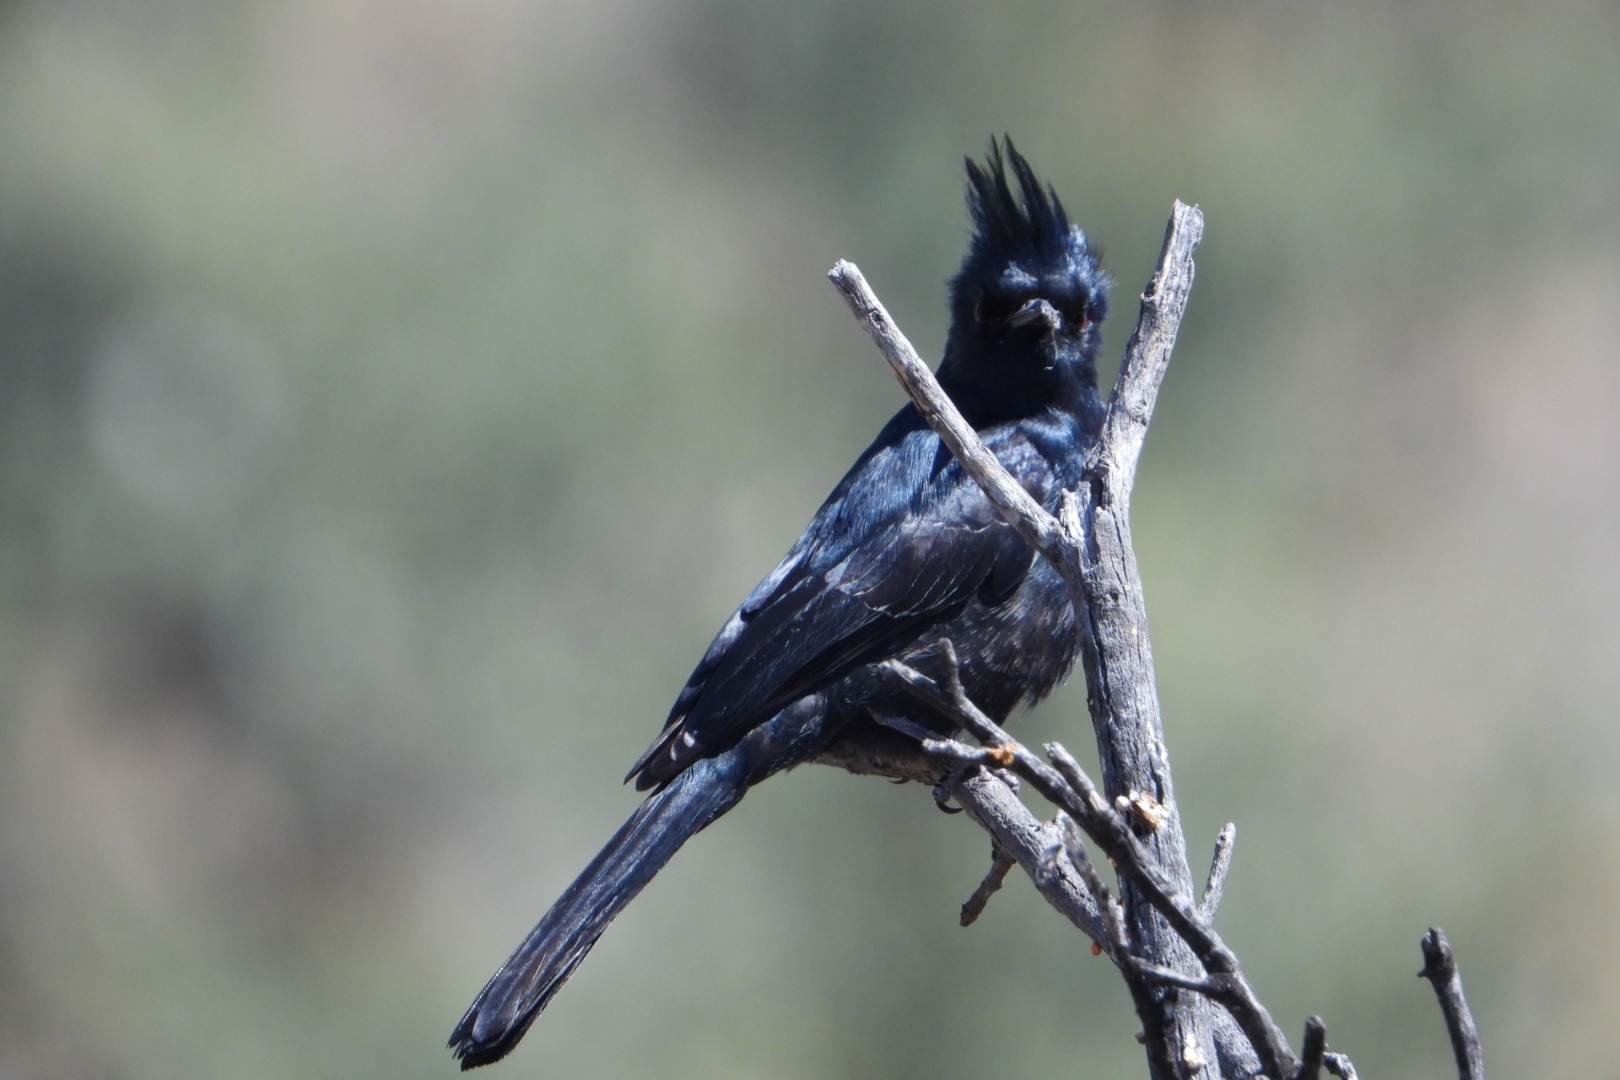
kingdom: Animalia
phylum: Chordata
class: Aves
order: Passeriformes
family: Ptilogonatidae
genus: Phainopepla
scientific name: Phainopepla nitens
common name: Phainopepla
